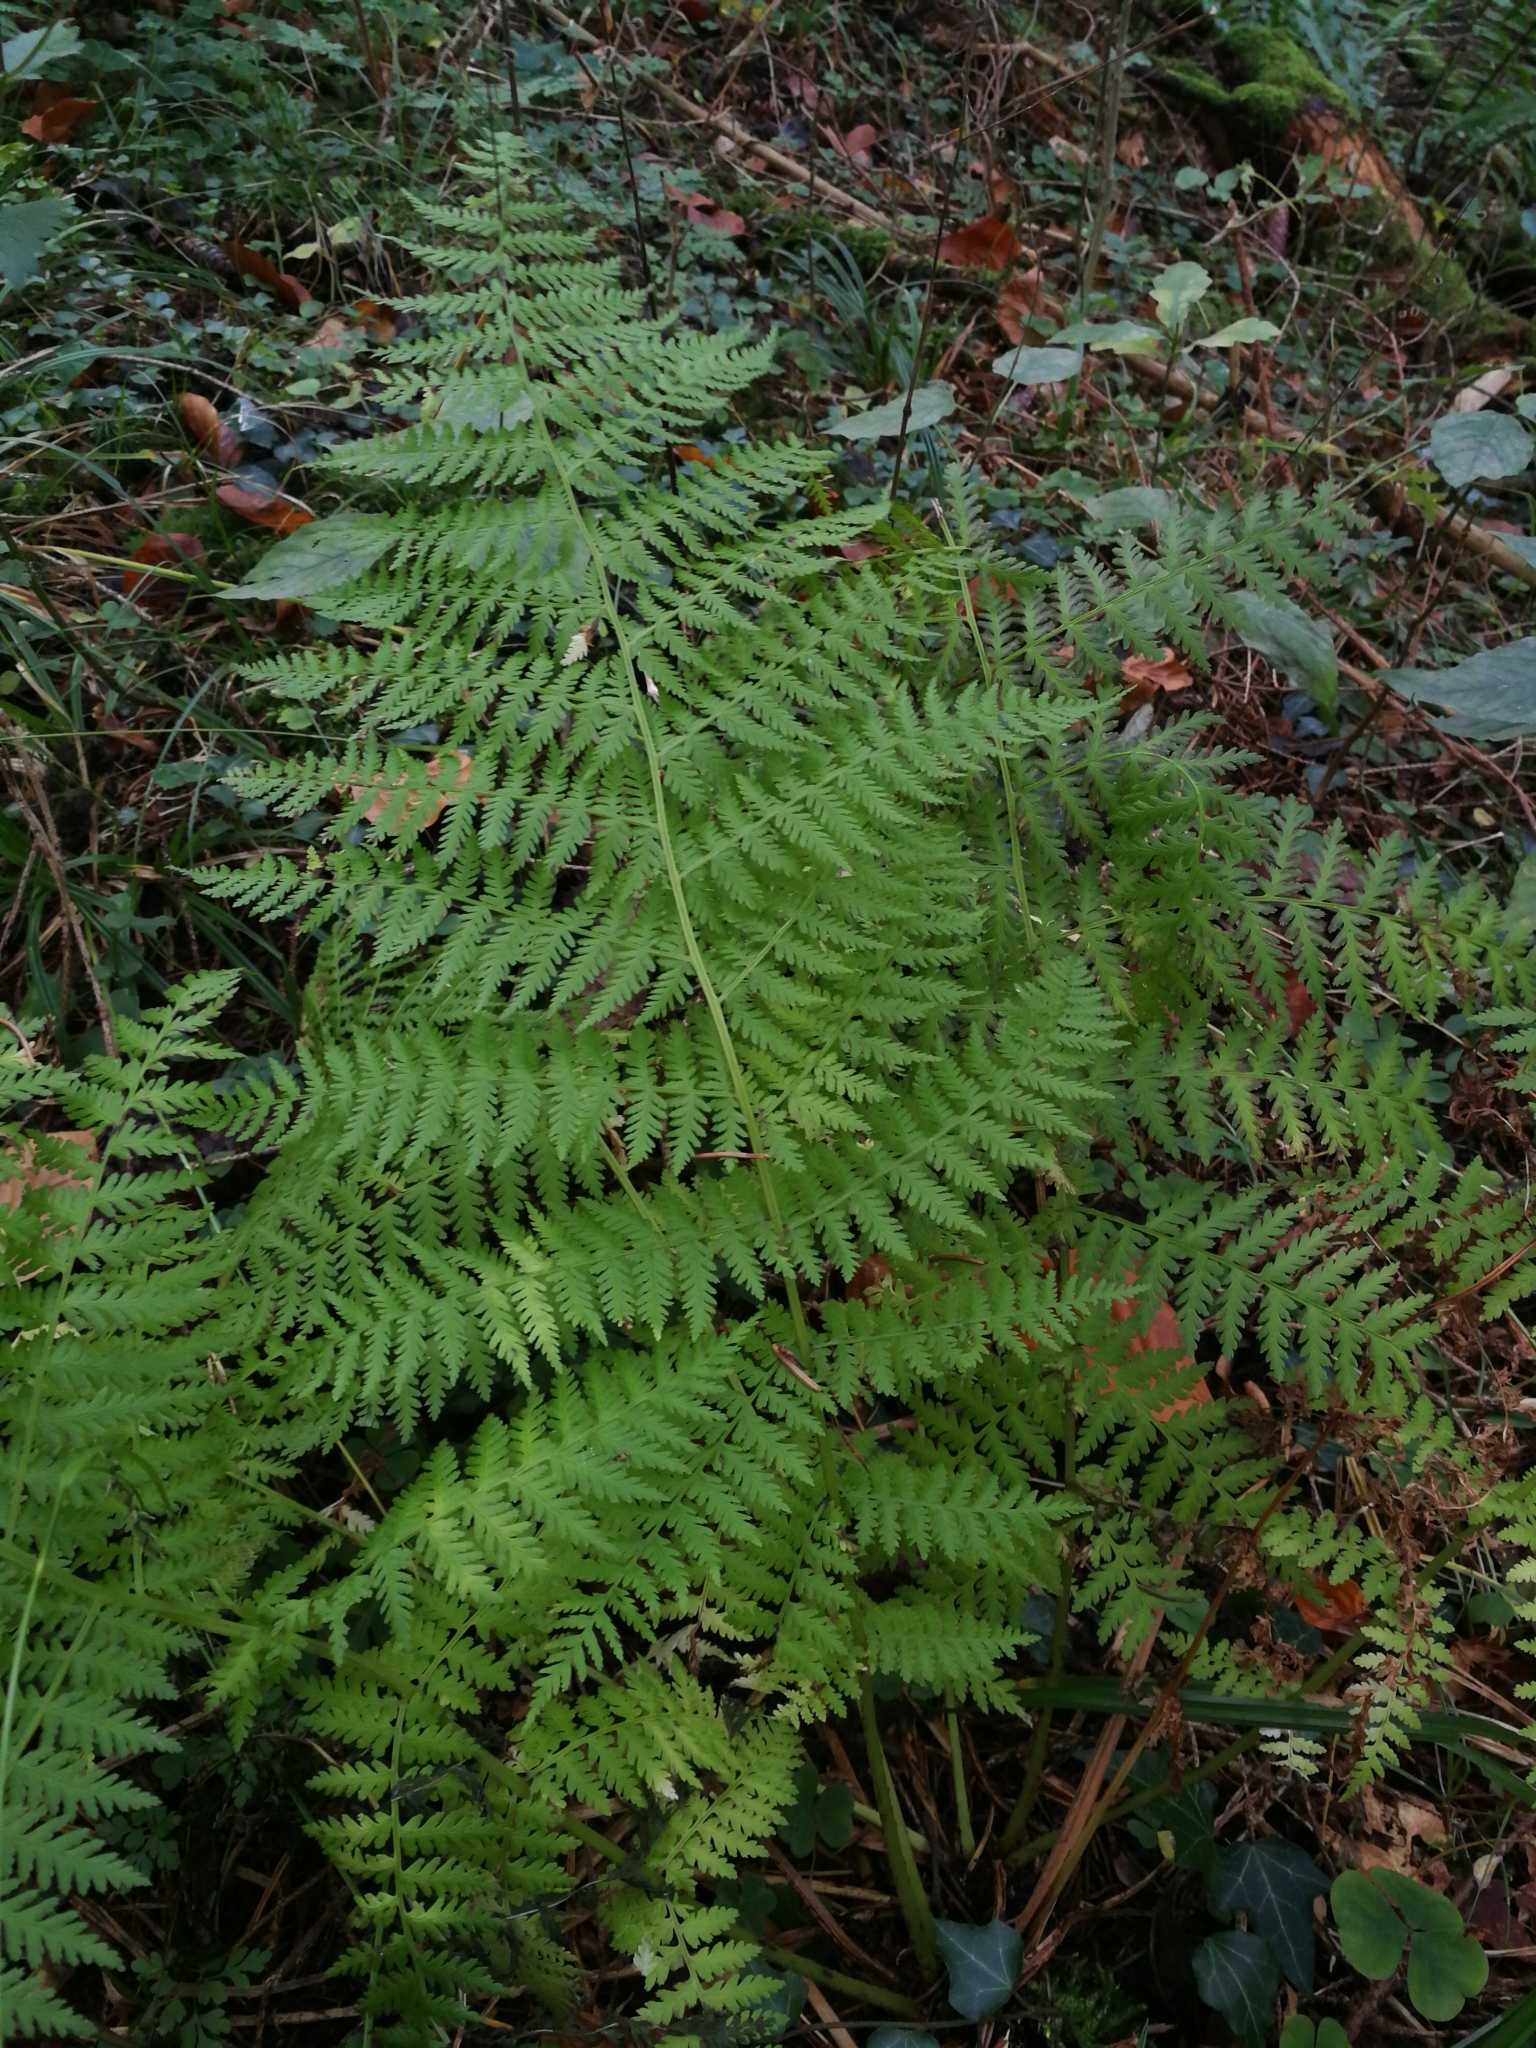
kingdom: Plantae
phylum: Tracheophyta
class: Polypodiopsida
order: Polypodiales
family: Athyriaceae
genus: Athyrium
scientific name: Athyrium filix-femina
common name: Lady fern
